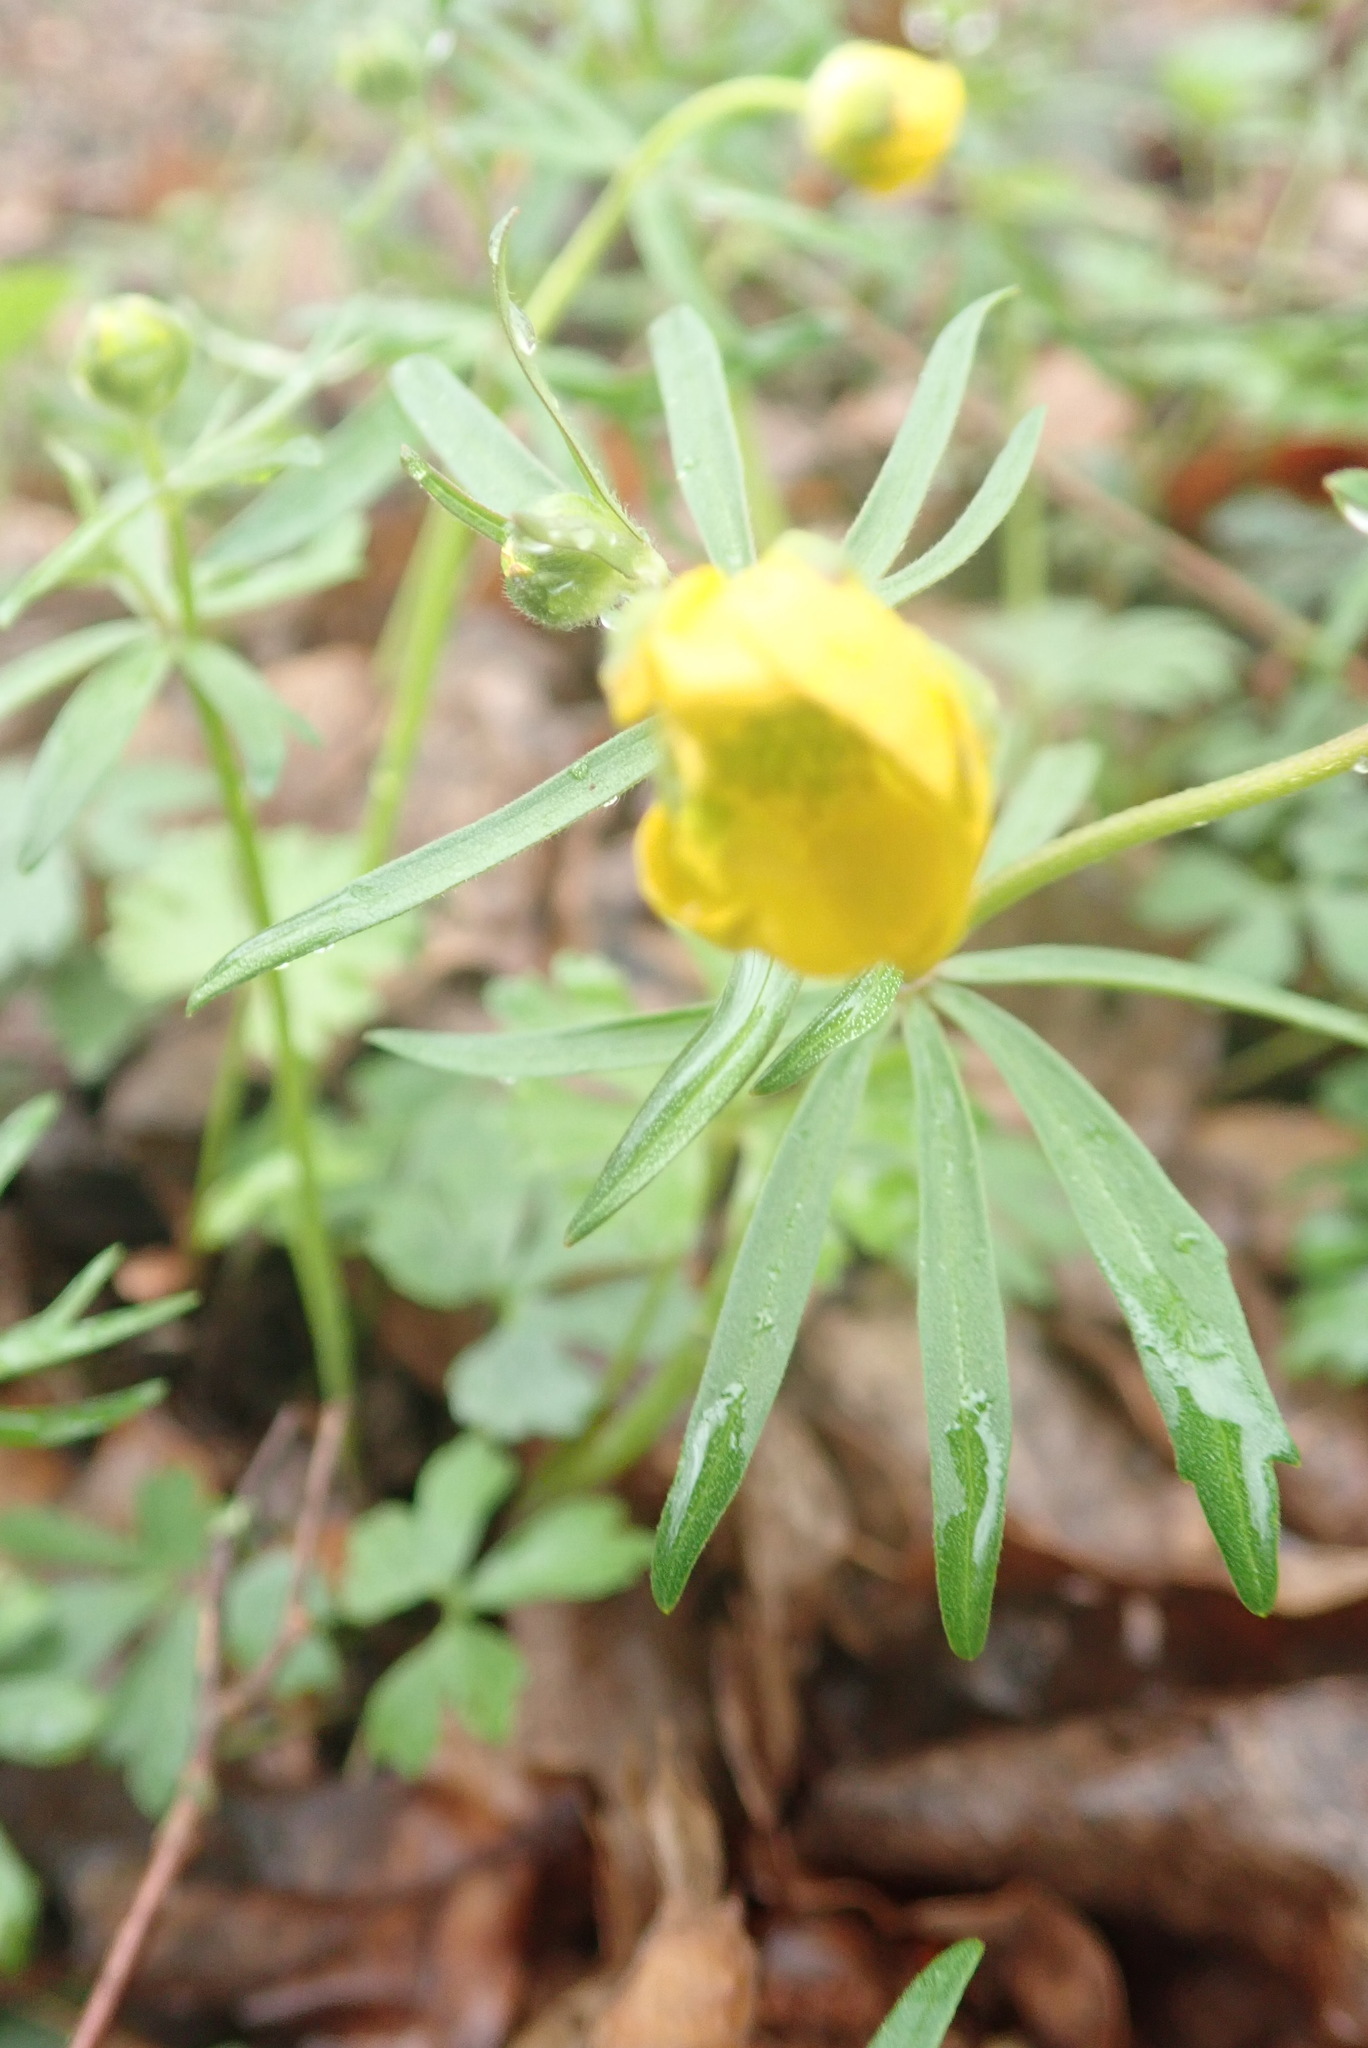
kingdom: Plantae
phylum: Tracheophyta
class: Magnoliopsida
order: Ranunculales
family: Ranunculaceae
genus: Ranunculus
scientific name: Ranunculus auricomus
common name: Goldilocks buttercup
